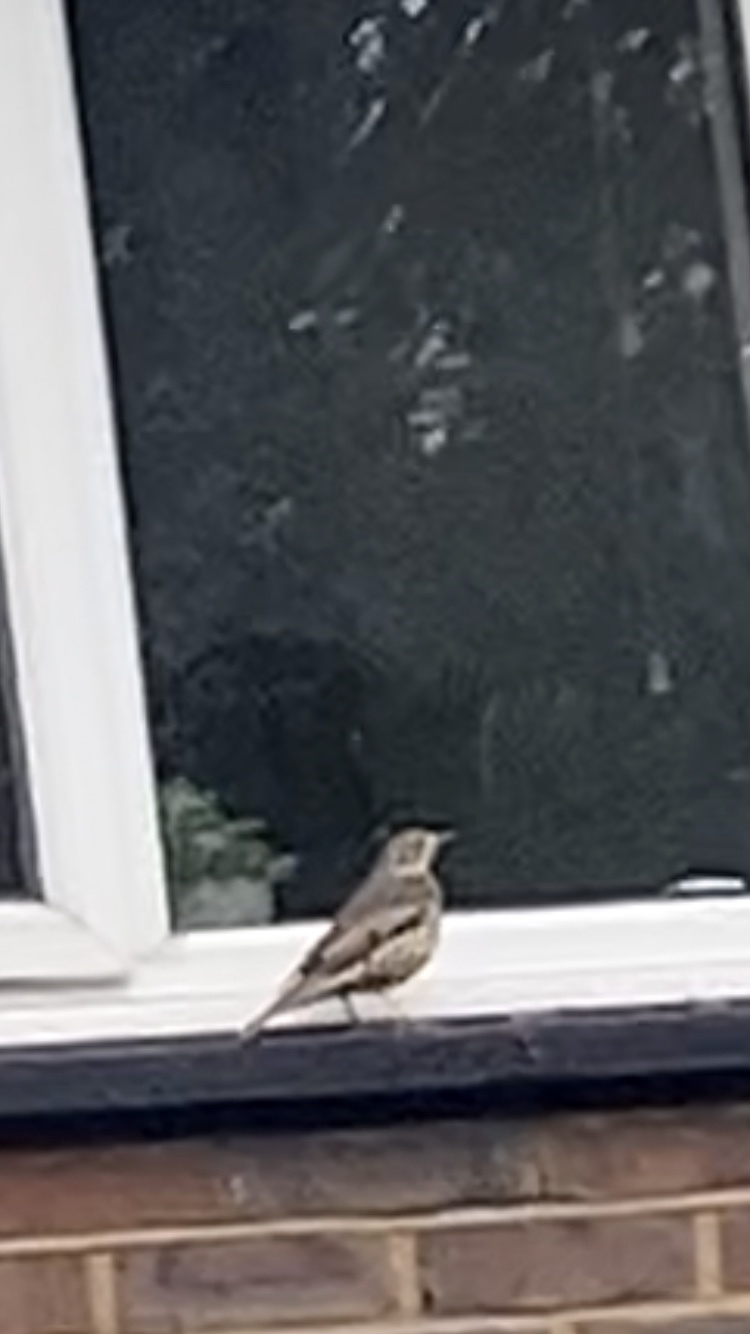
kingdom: Animalia
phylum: Chordata
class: Aves
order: Passeriformes
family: Turdidae
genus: Turdus
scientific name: Turdus viscivorus
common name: Mistle thrush
